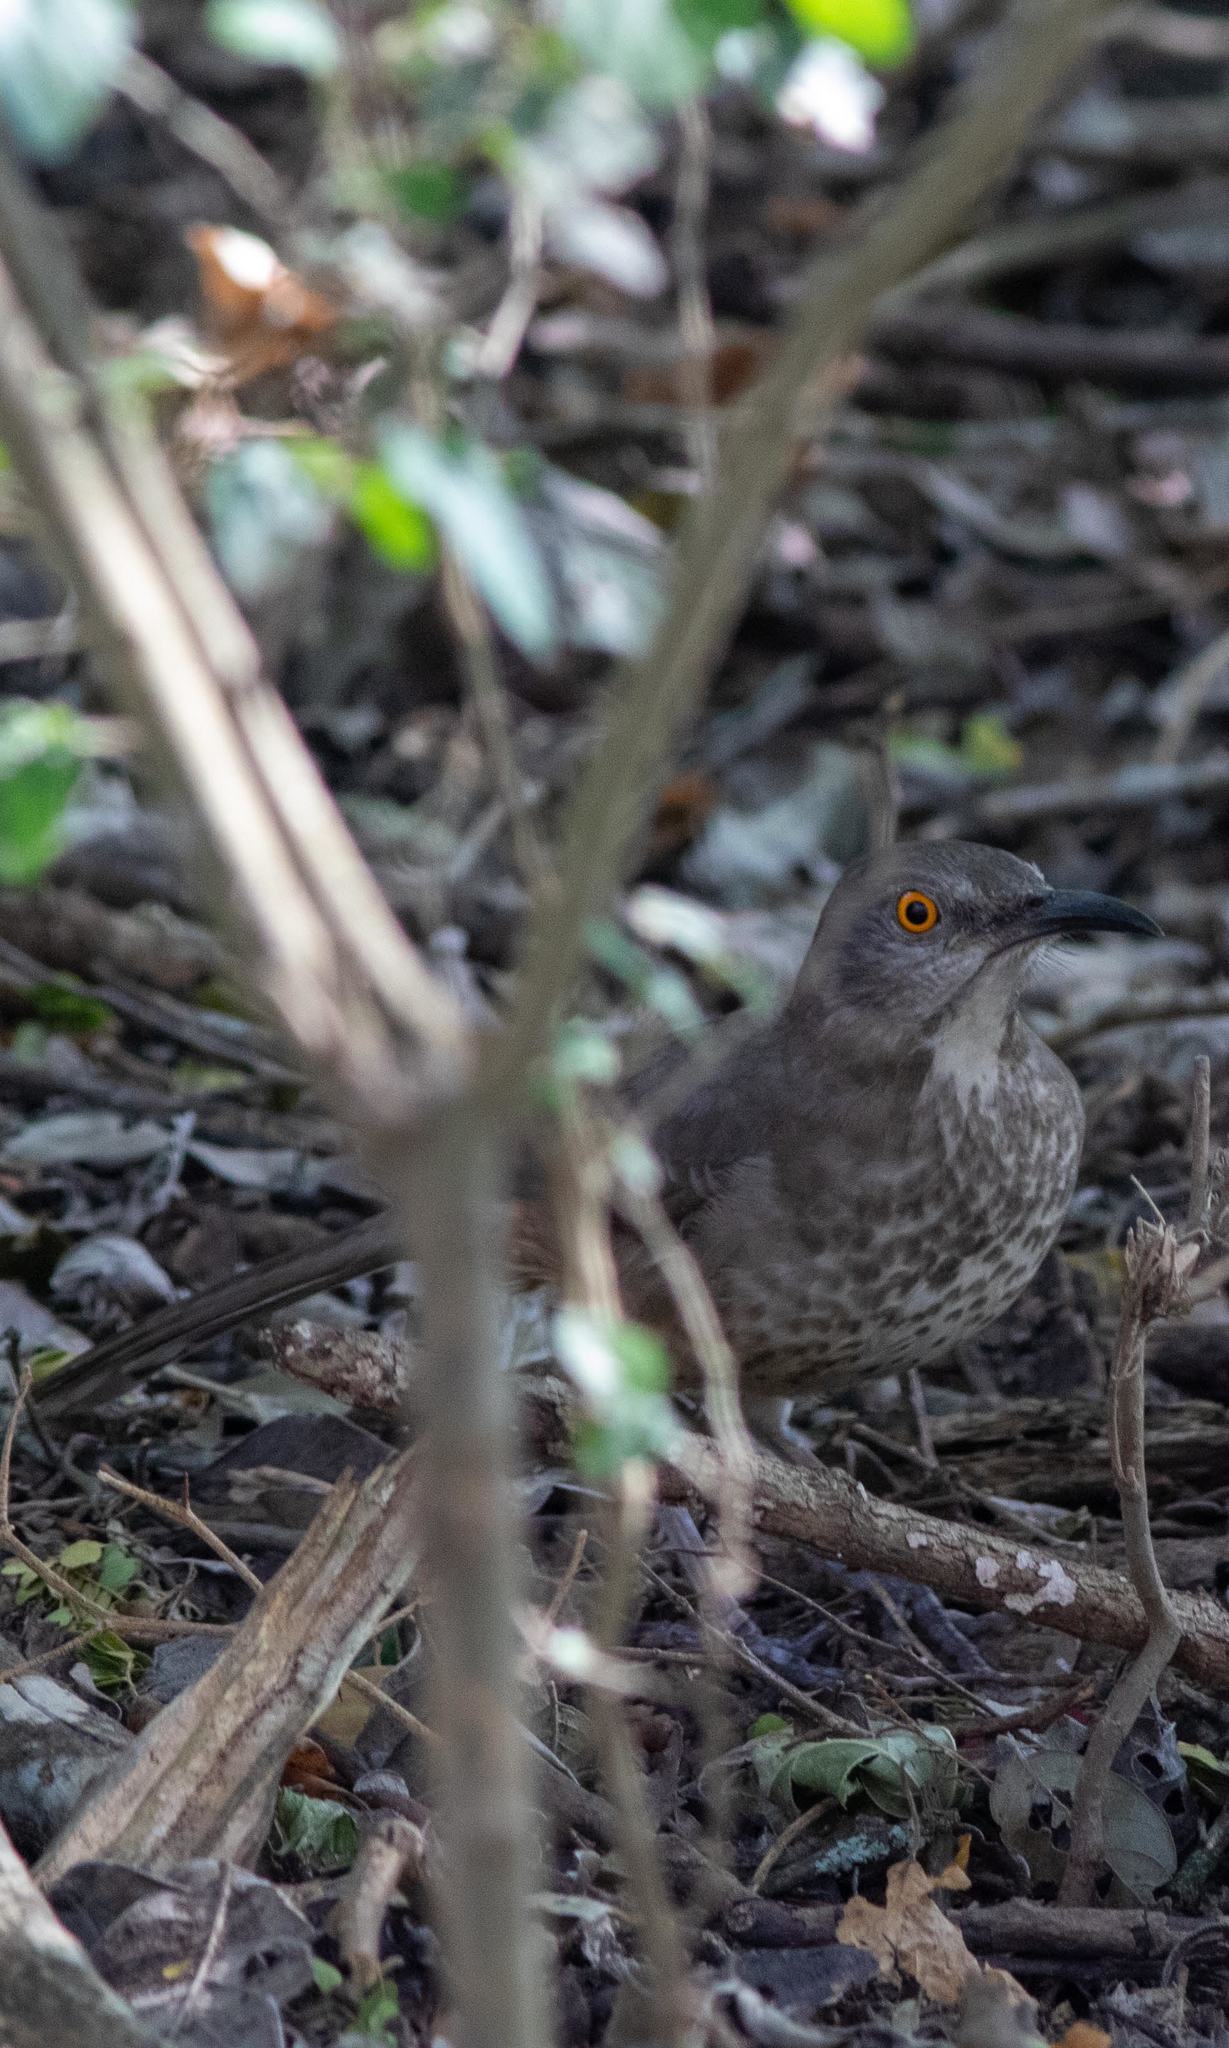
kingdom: Animalia
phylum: Chordata
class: Aves
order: Passeriformes
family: Mimidae
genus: Toxostoma
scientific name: Toxostoma curvirostre
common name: Curve-billed thrasher
